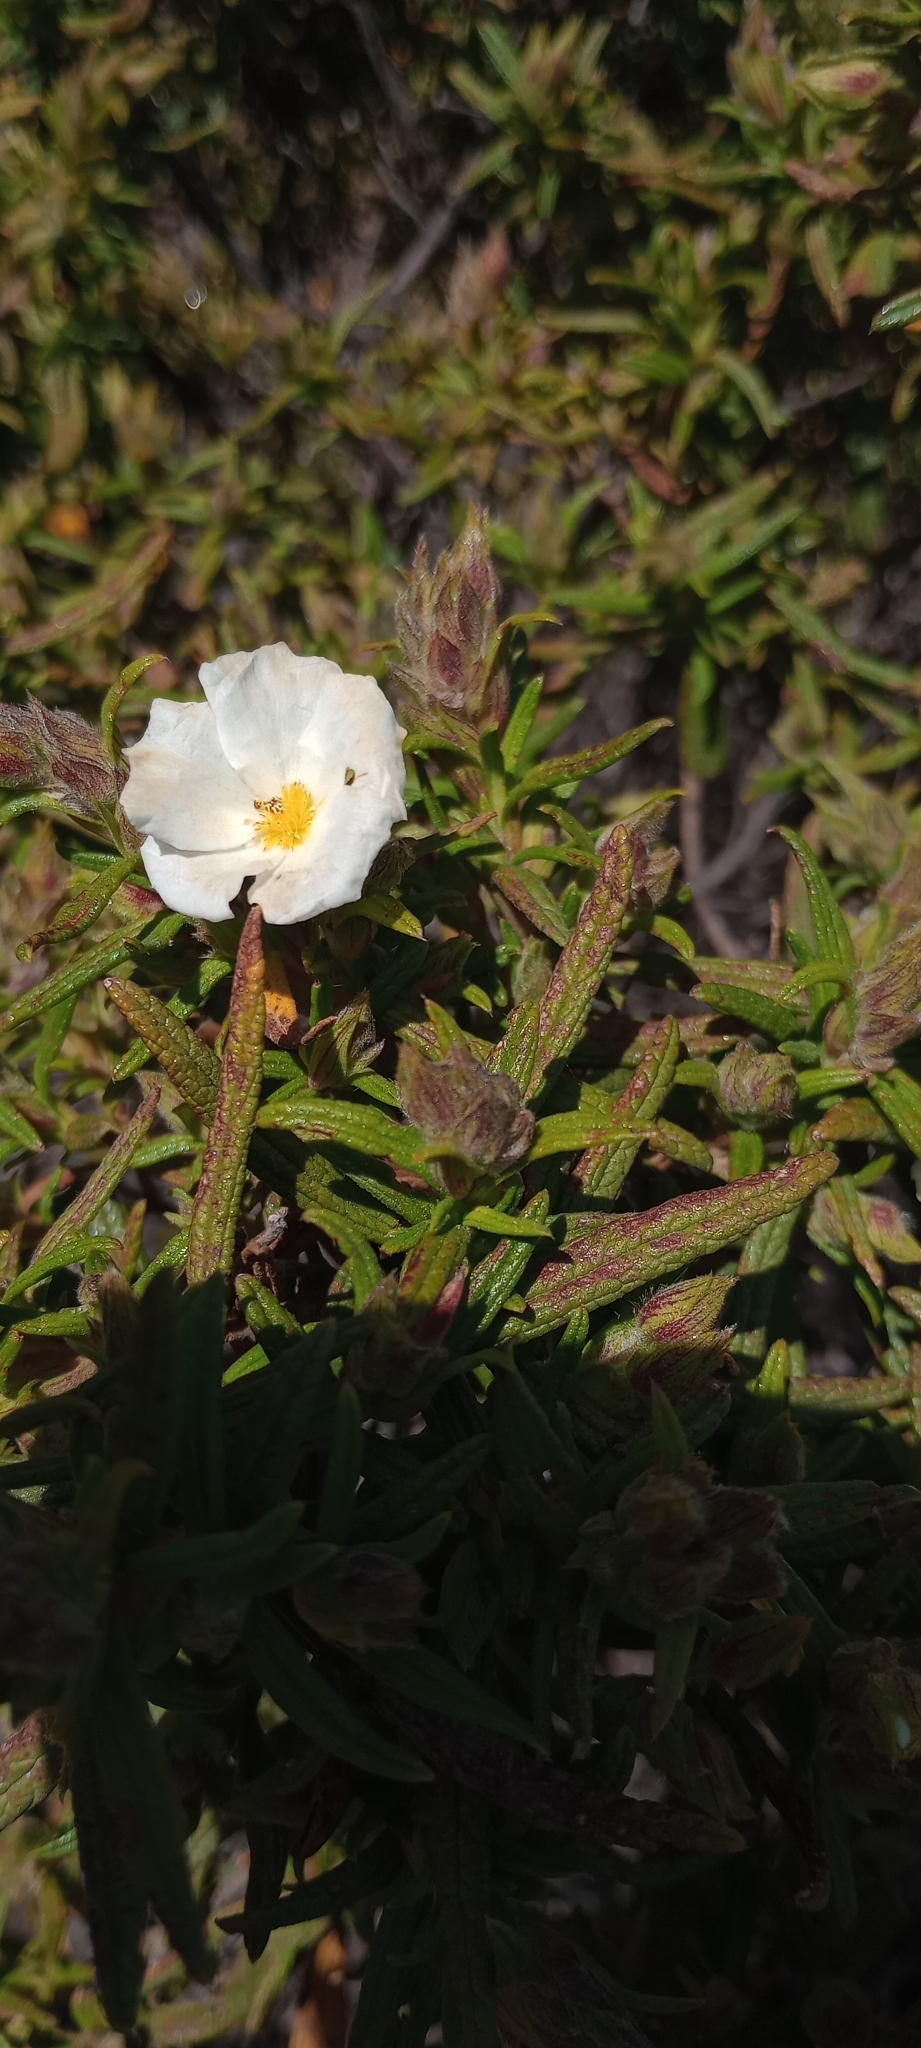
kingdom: Plantae
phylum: Tracheophyta
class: Magnoliopsida
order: Malvales
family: Cistaceae
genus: Cistus
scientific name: Cistus monspeliensis
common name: Montpelier cistus
